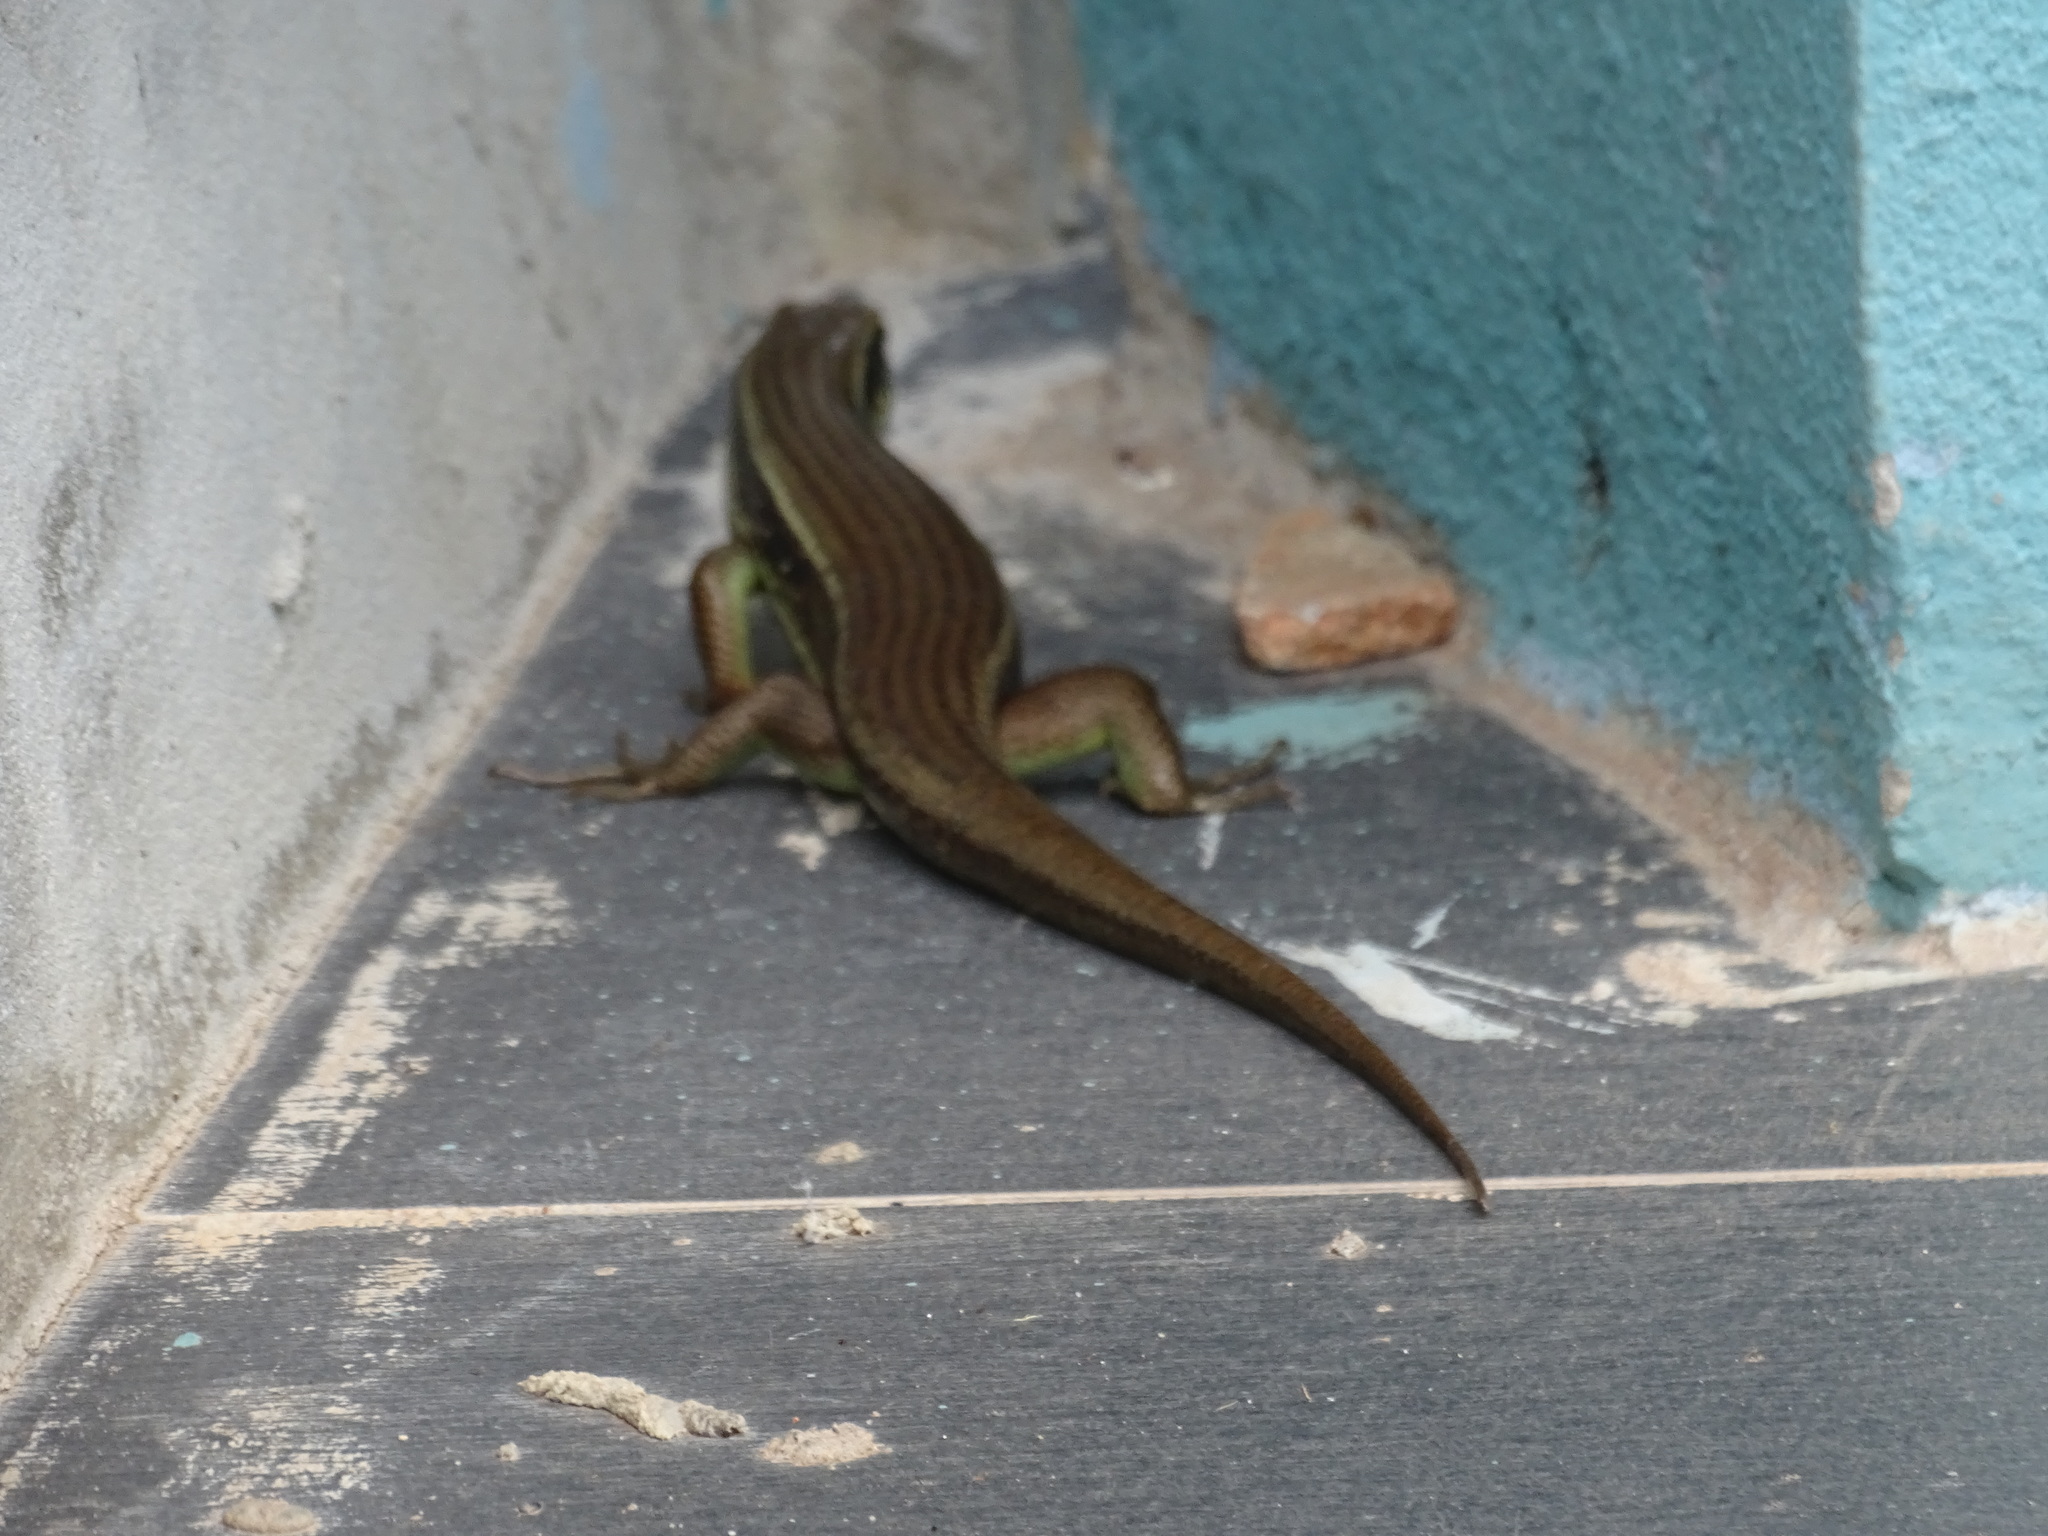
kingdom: Animalia
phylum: Chordata
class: Squamata
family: Scincidae
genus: Eutropis
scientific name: Eutropis longicaudata
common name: Long-tailed sun skink
